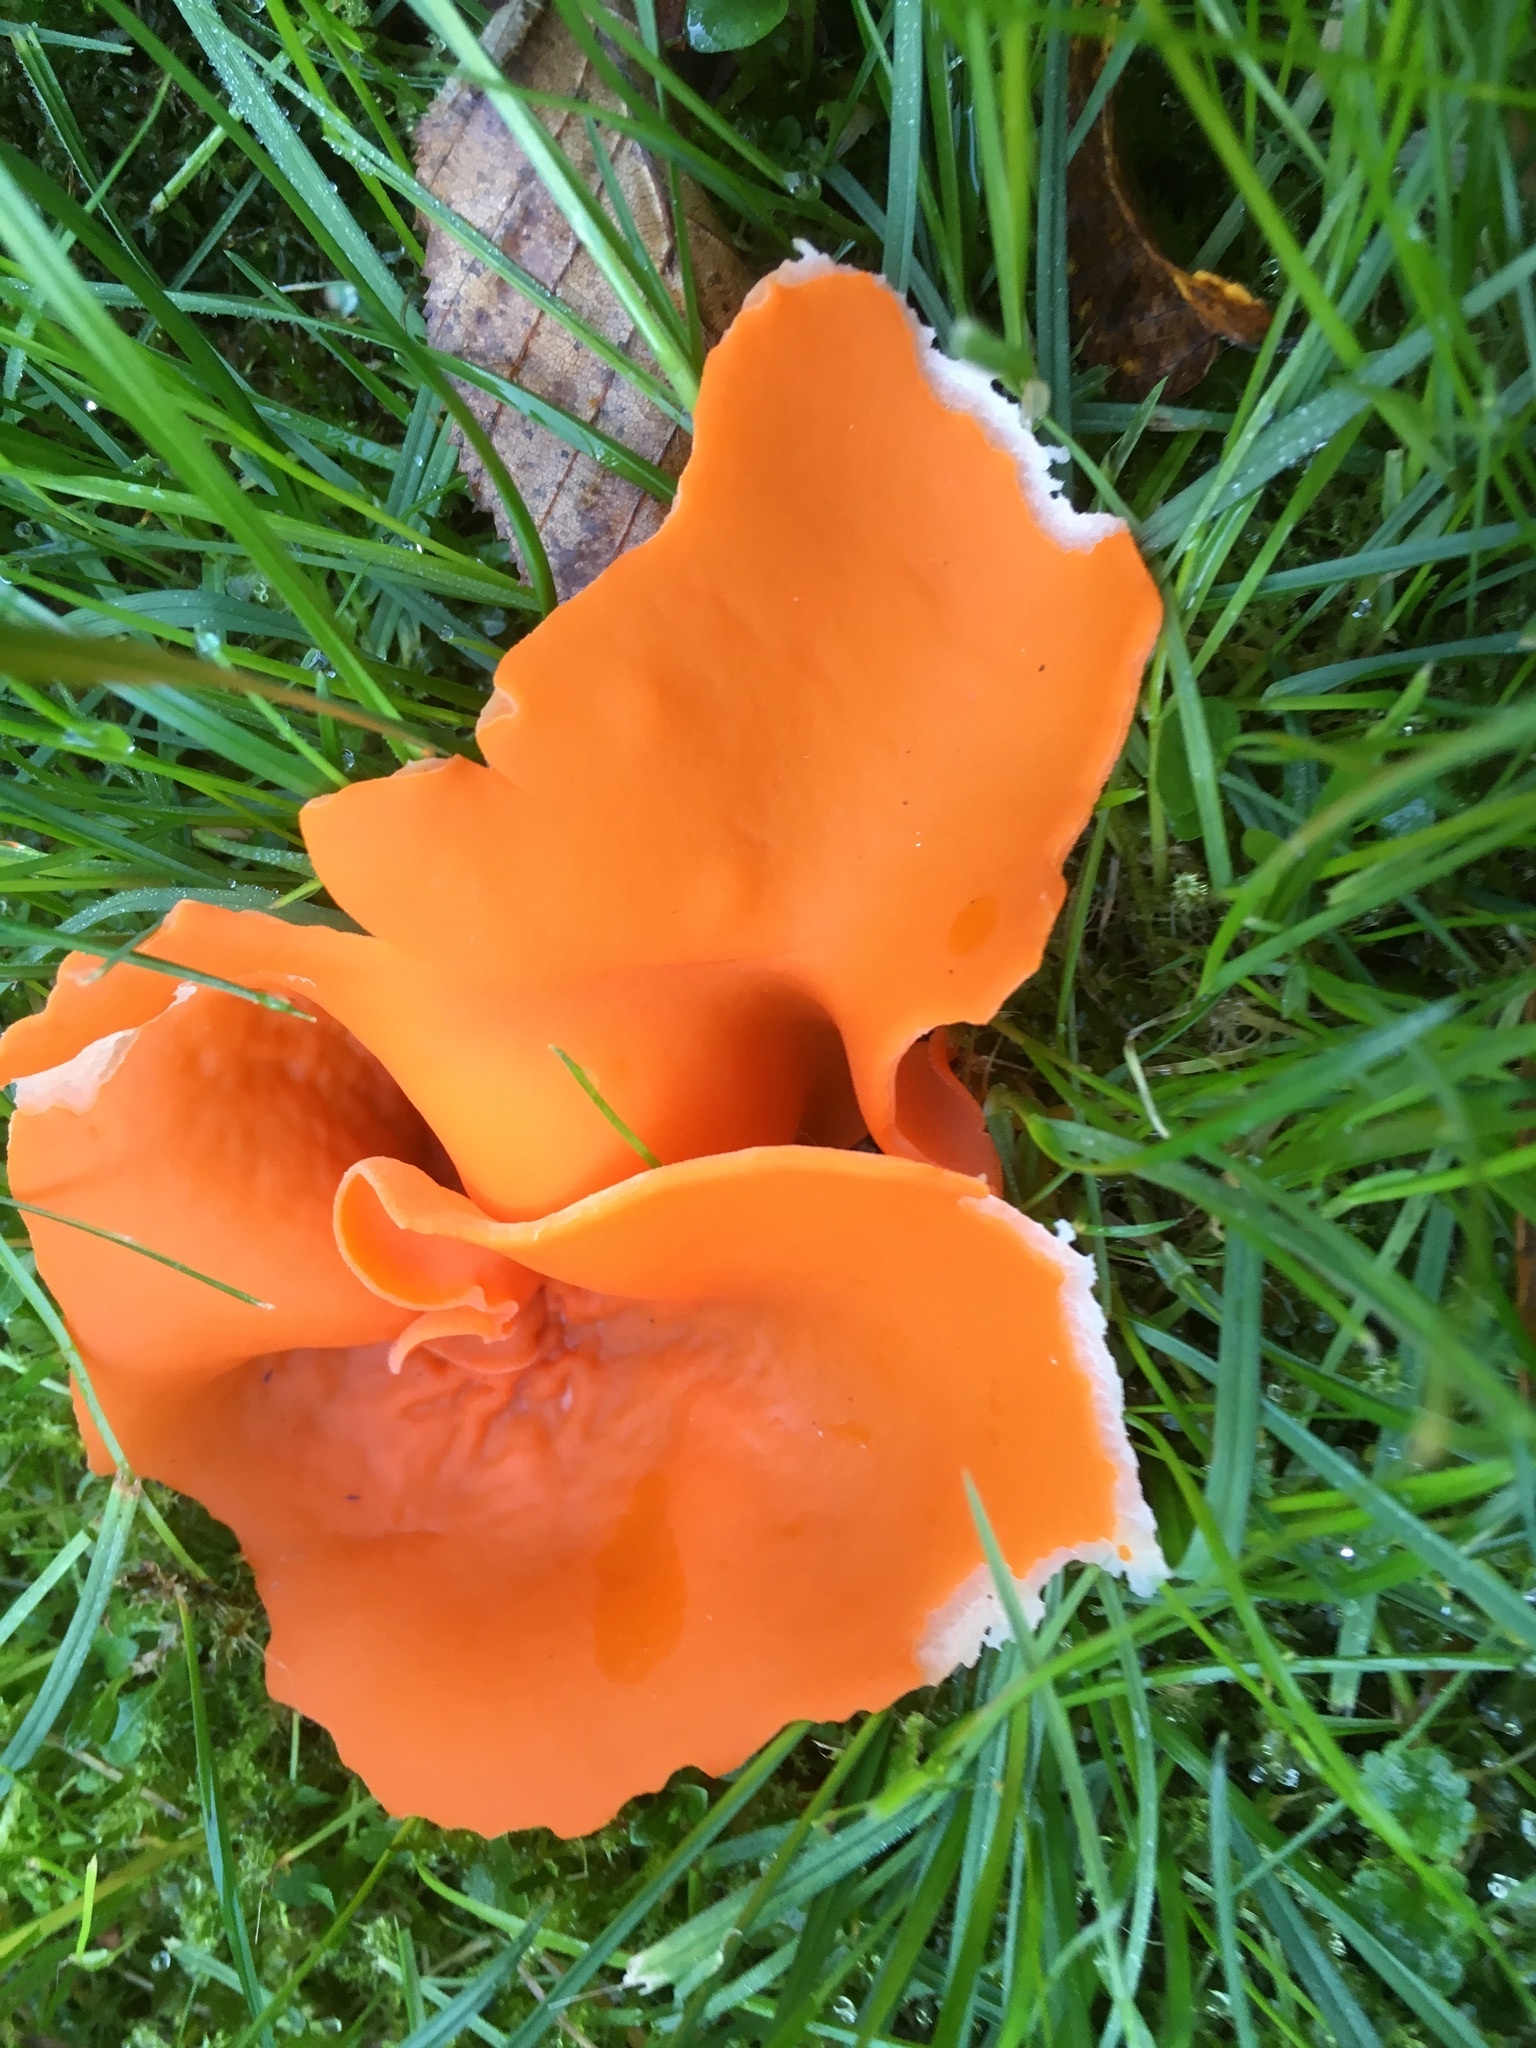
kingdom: Fungi
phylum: Ascomycota
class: Pezizomycetes
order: Pezizales
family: Pyronemataceae
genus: Aleuria
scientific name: Aleuria aurantia
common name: Orange peel fungus
